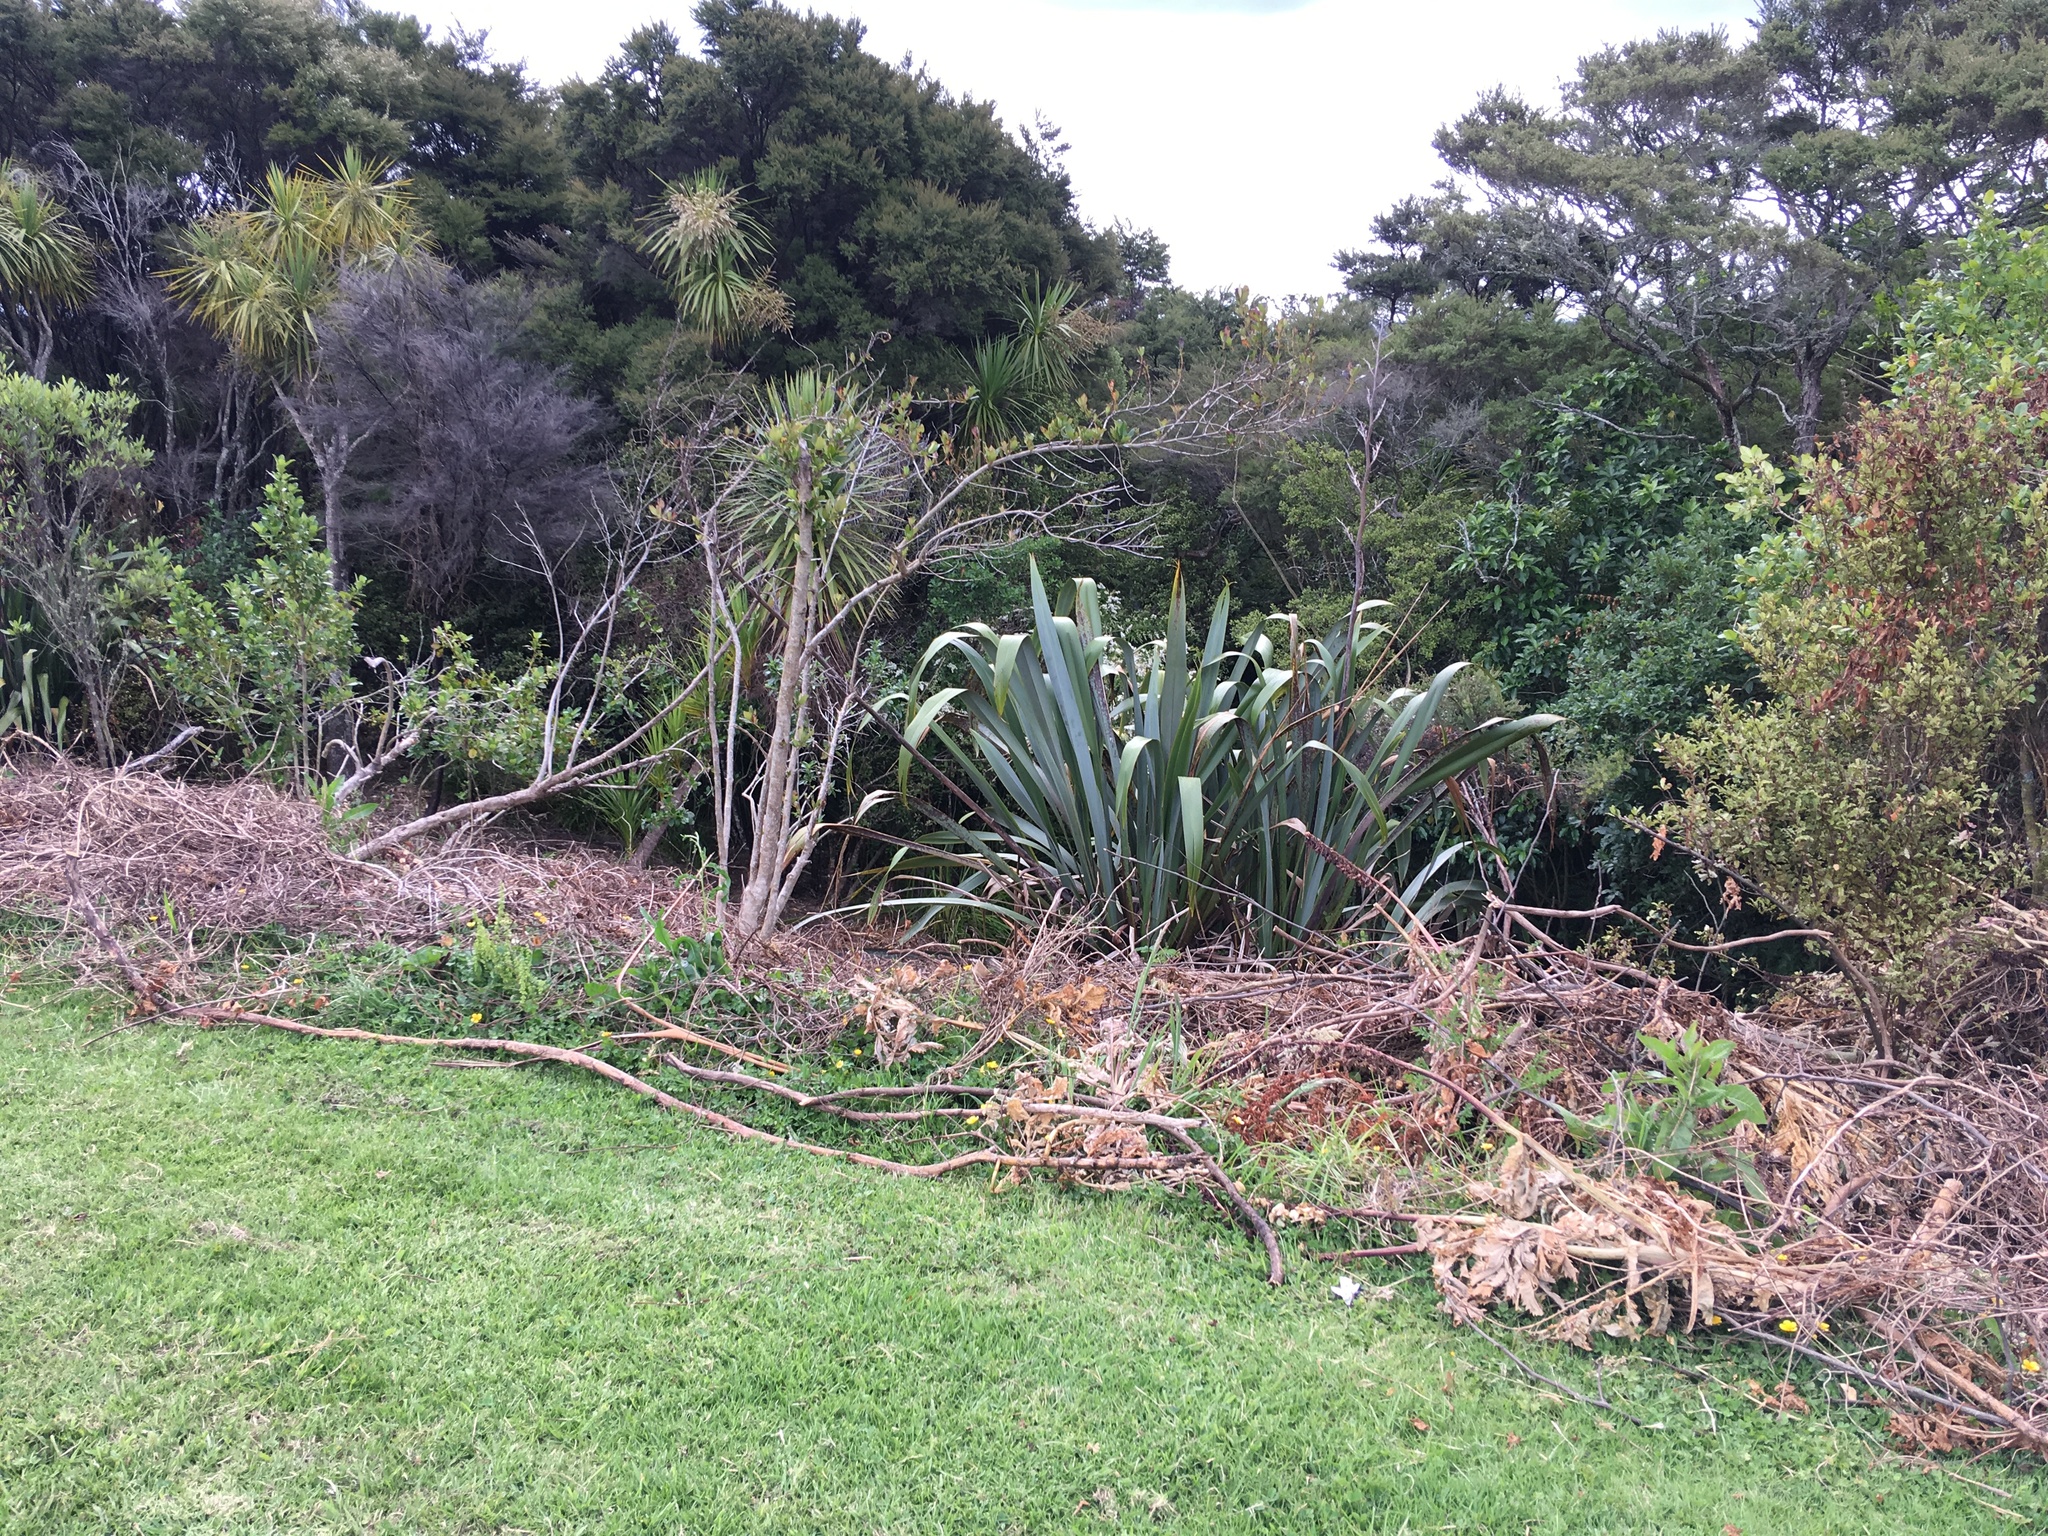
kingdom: Plantae
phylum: Tracheophyta
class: Liliopsida
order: Poales
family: Poaceae
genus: Cenchrus
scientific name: Cenchrus clandestinus
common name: Kikuyugrass
